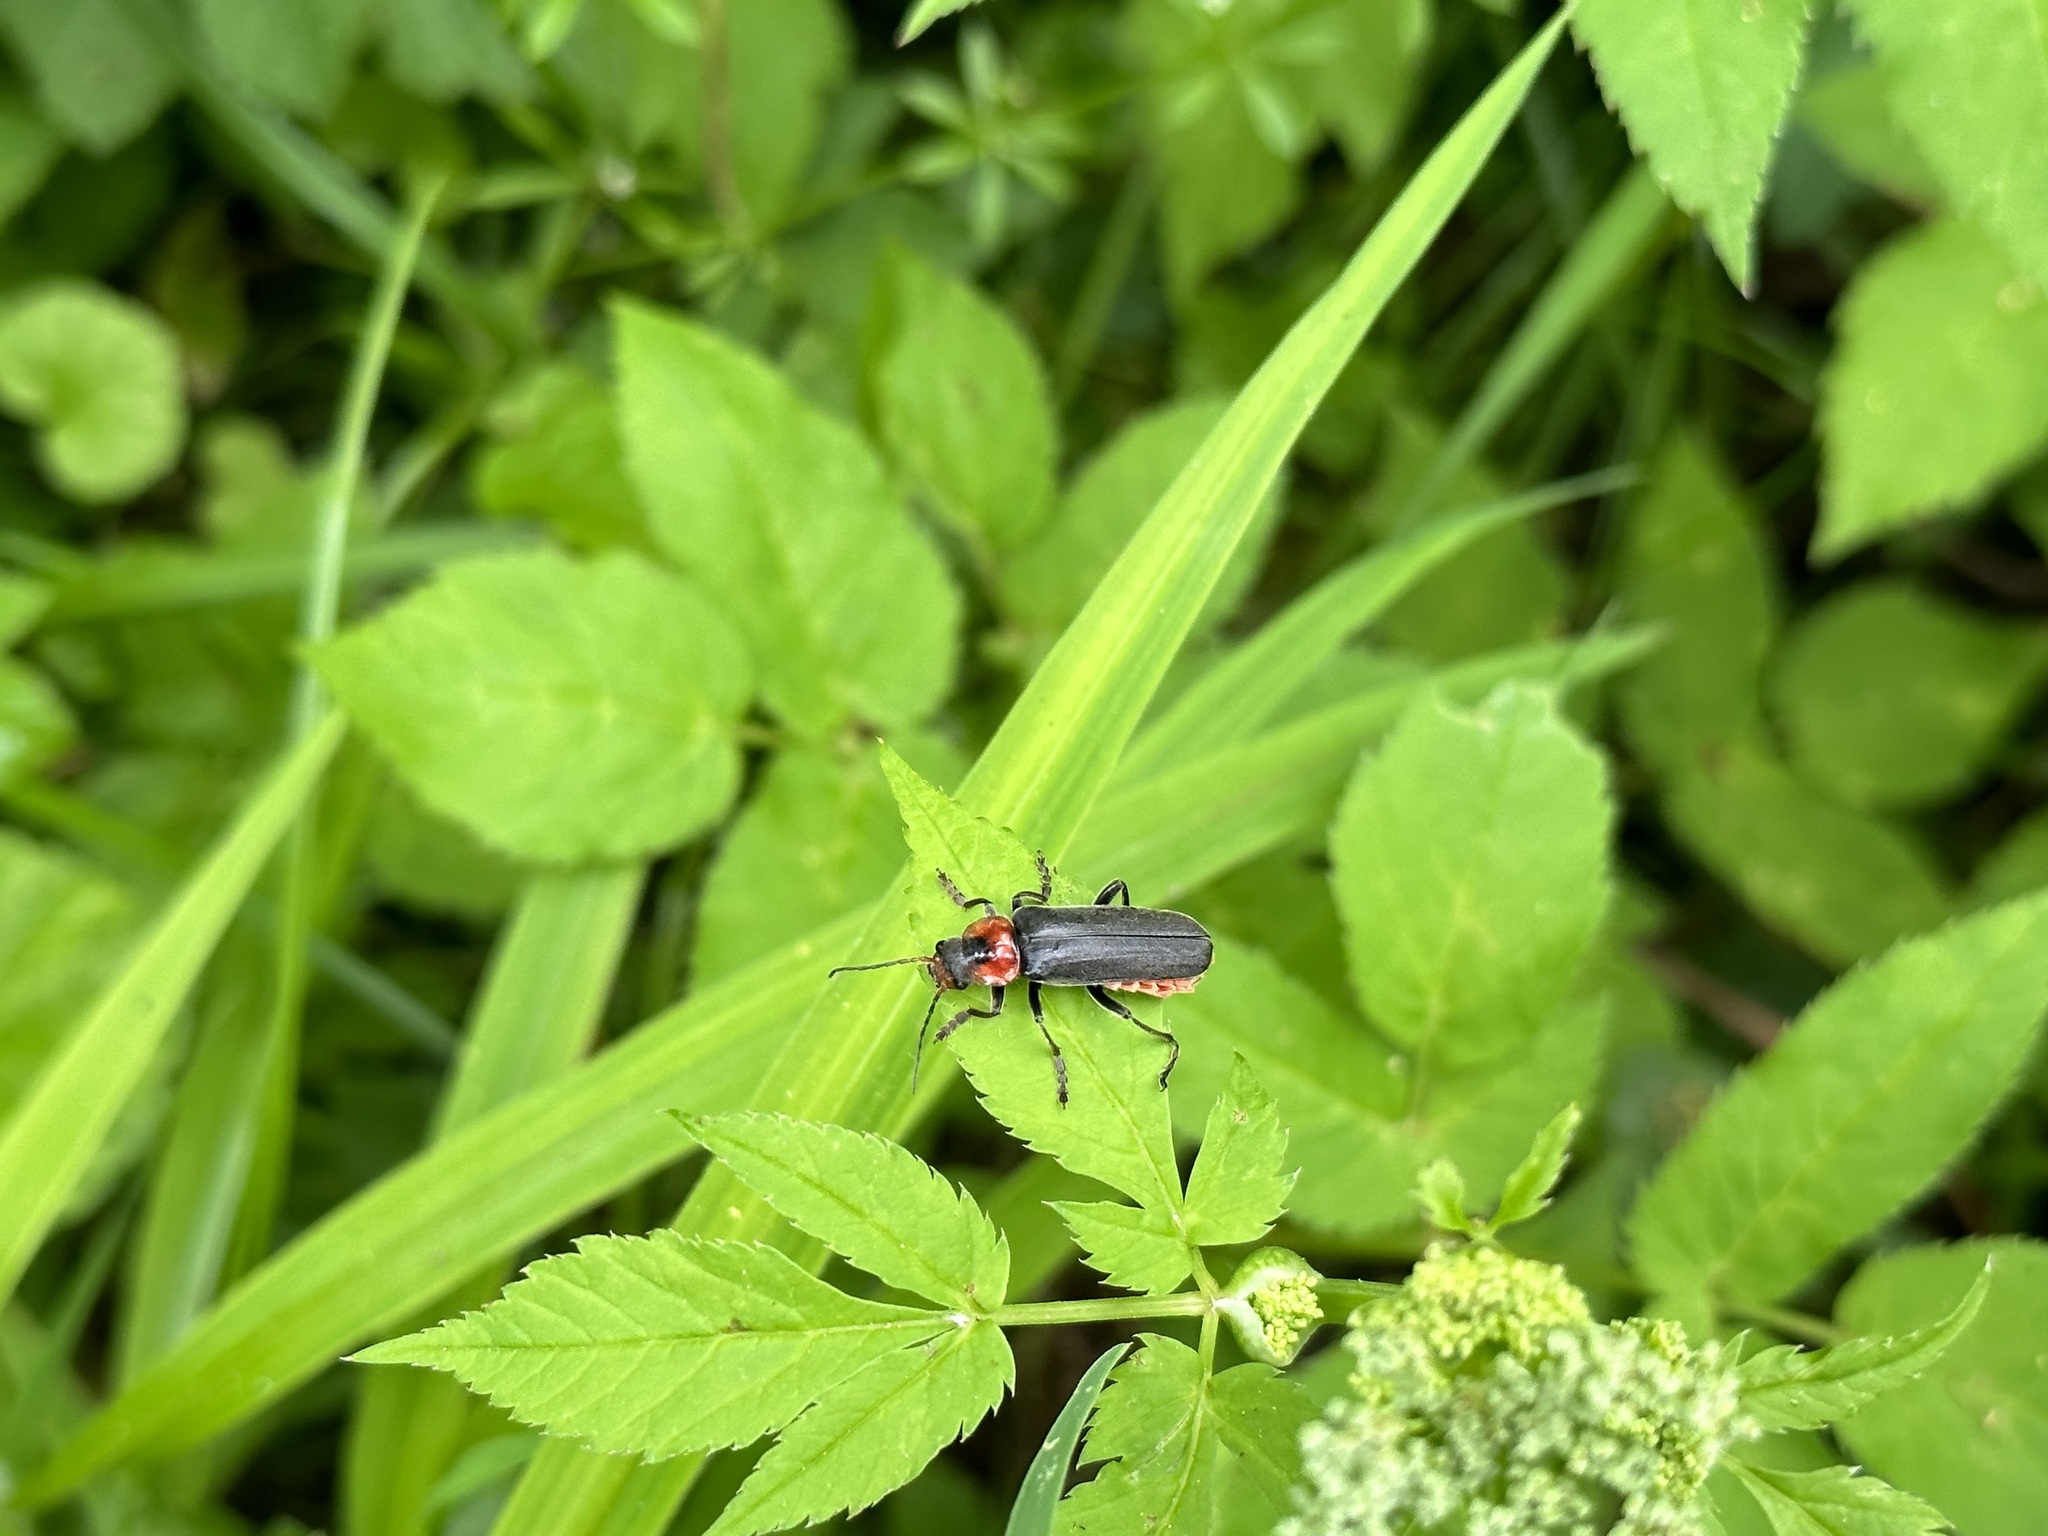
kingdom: Animalia
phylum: Arthropoda
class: Insecta
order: Coleoptera
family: Cantharidae
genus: Cantharis
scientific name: Cantharis fusca
